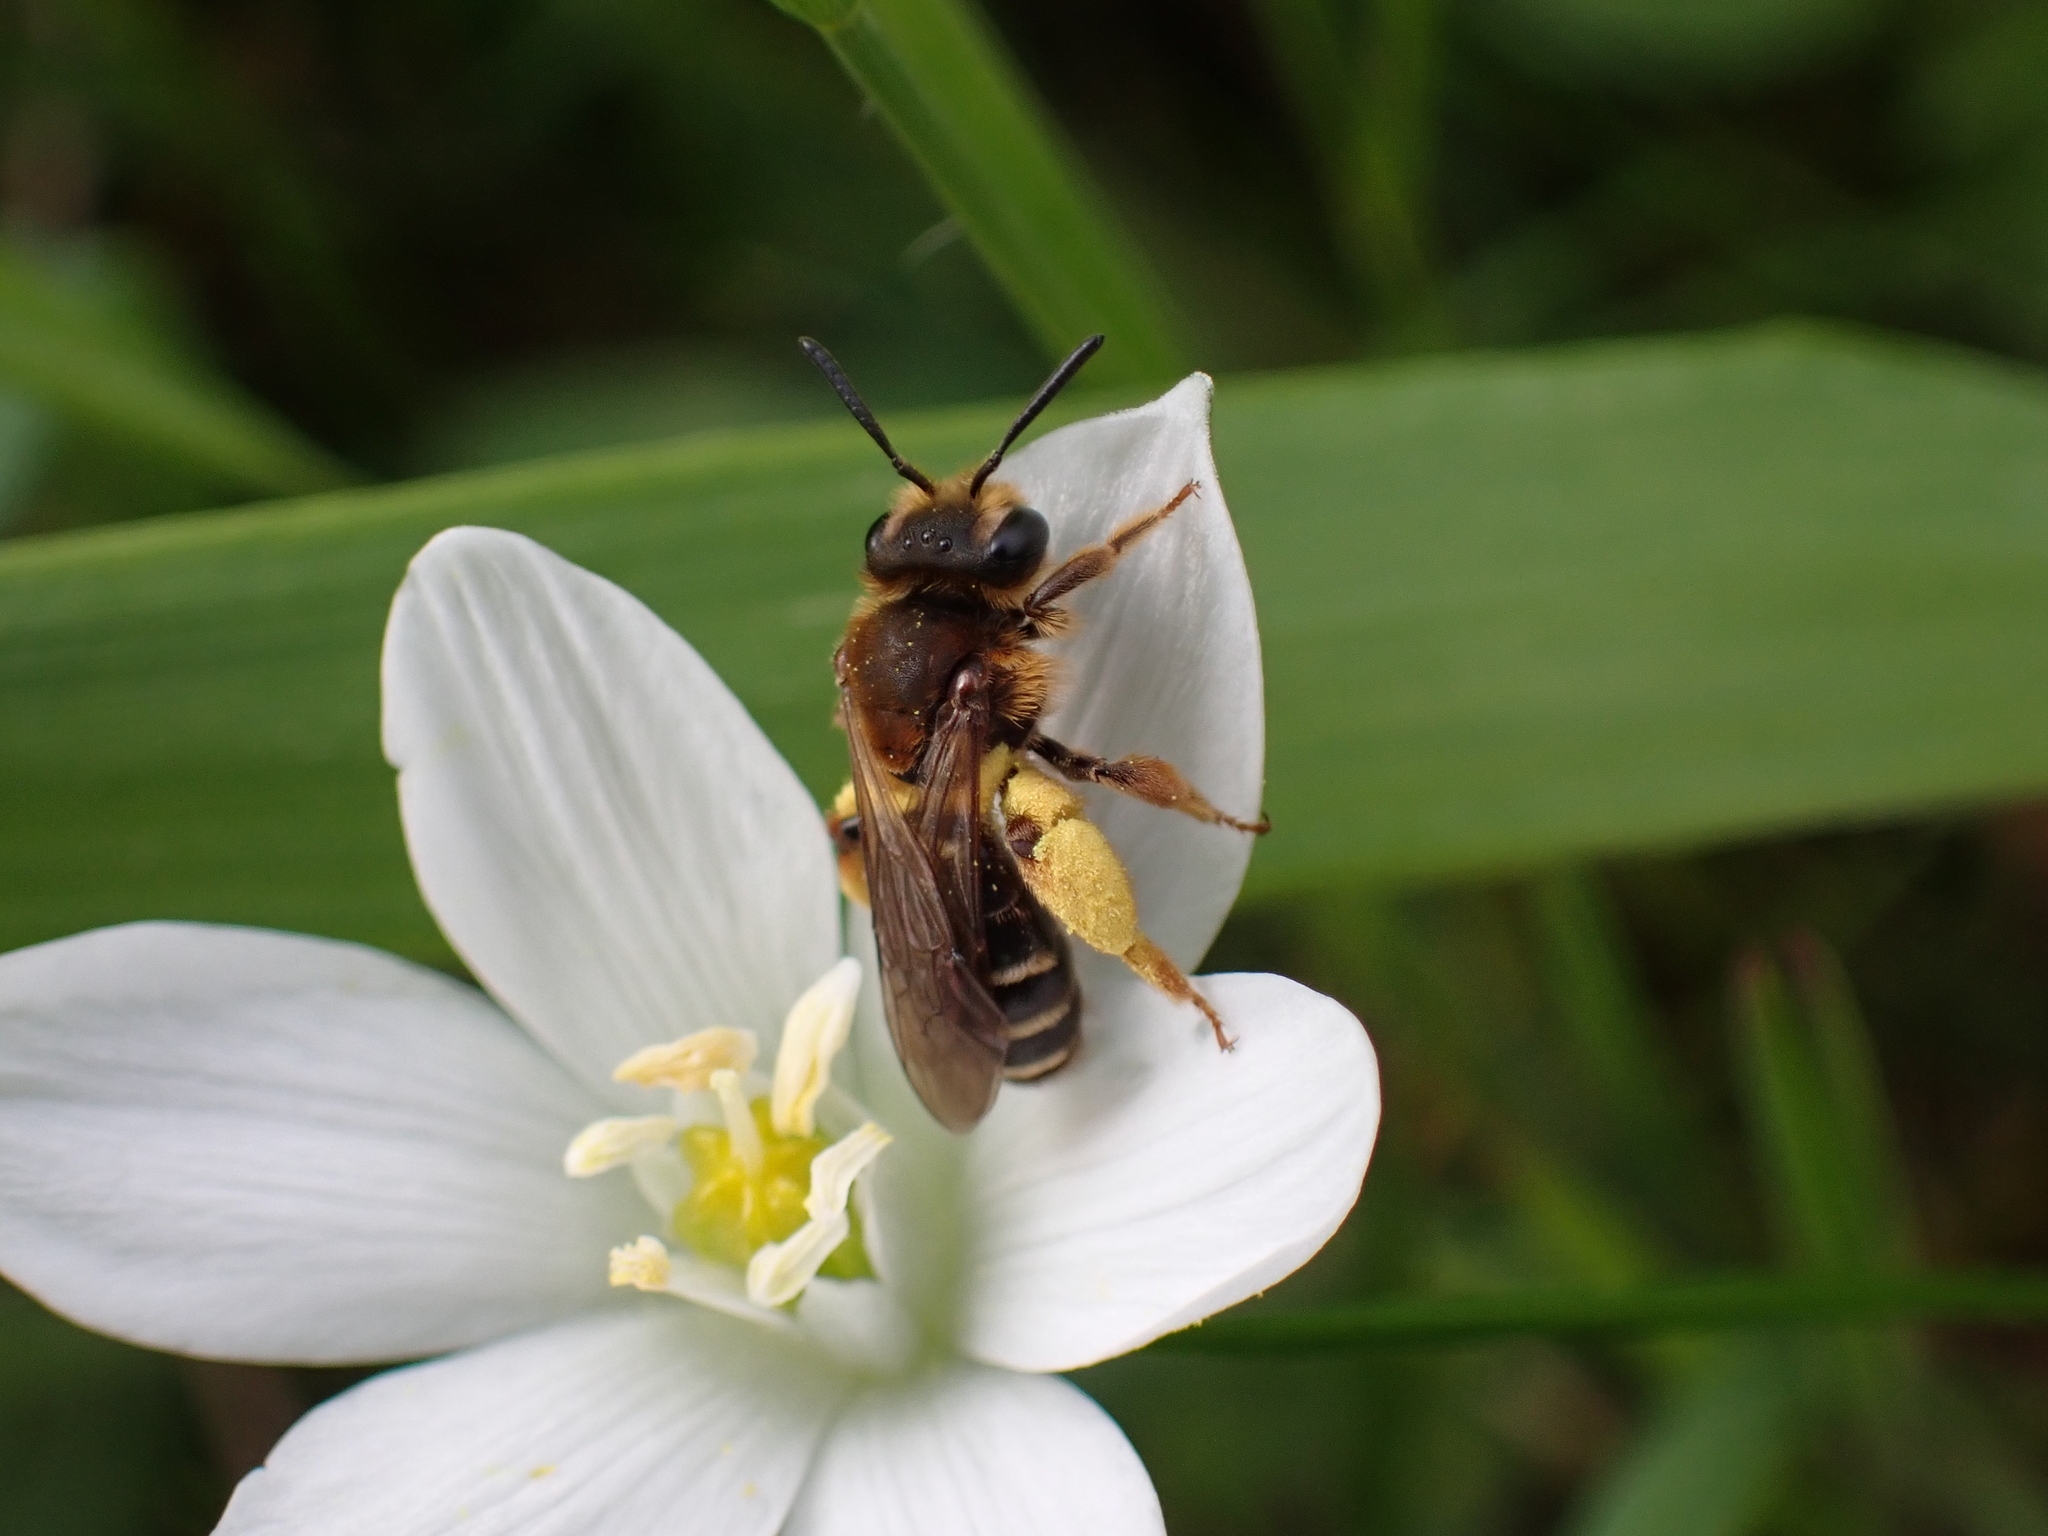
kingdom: Animalia
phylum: Arthropoda
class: Insecta
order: Hymenoptera
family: Andrenidae
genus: Andrena
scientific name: Andrena mocsaryi
